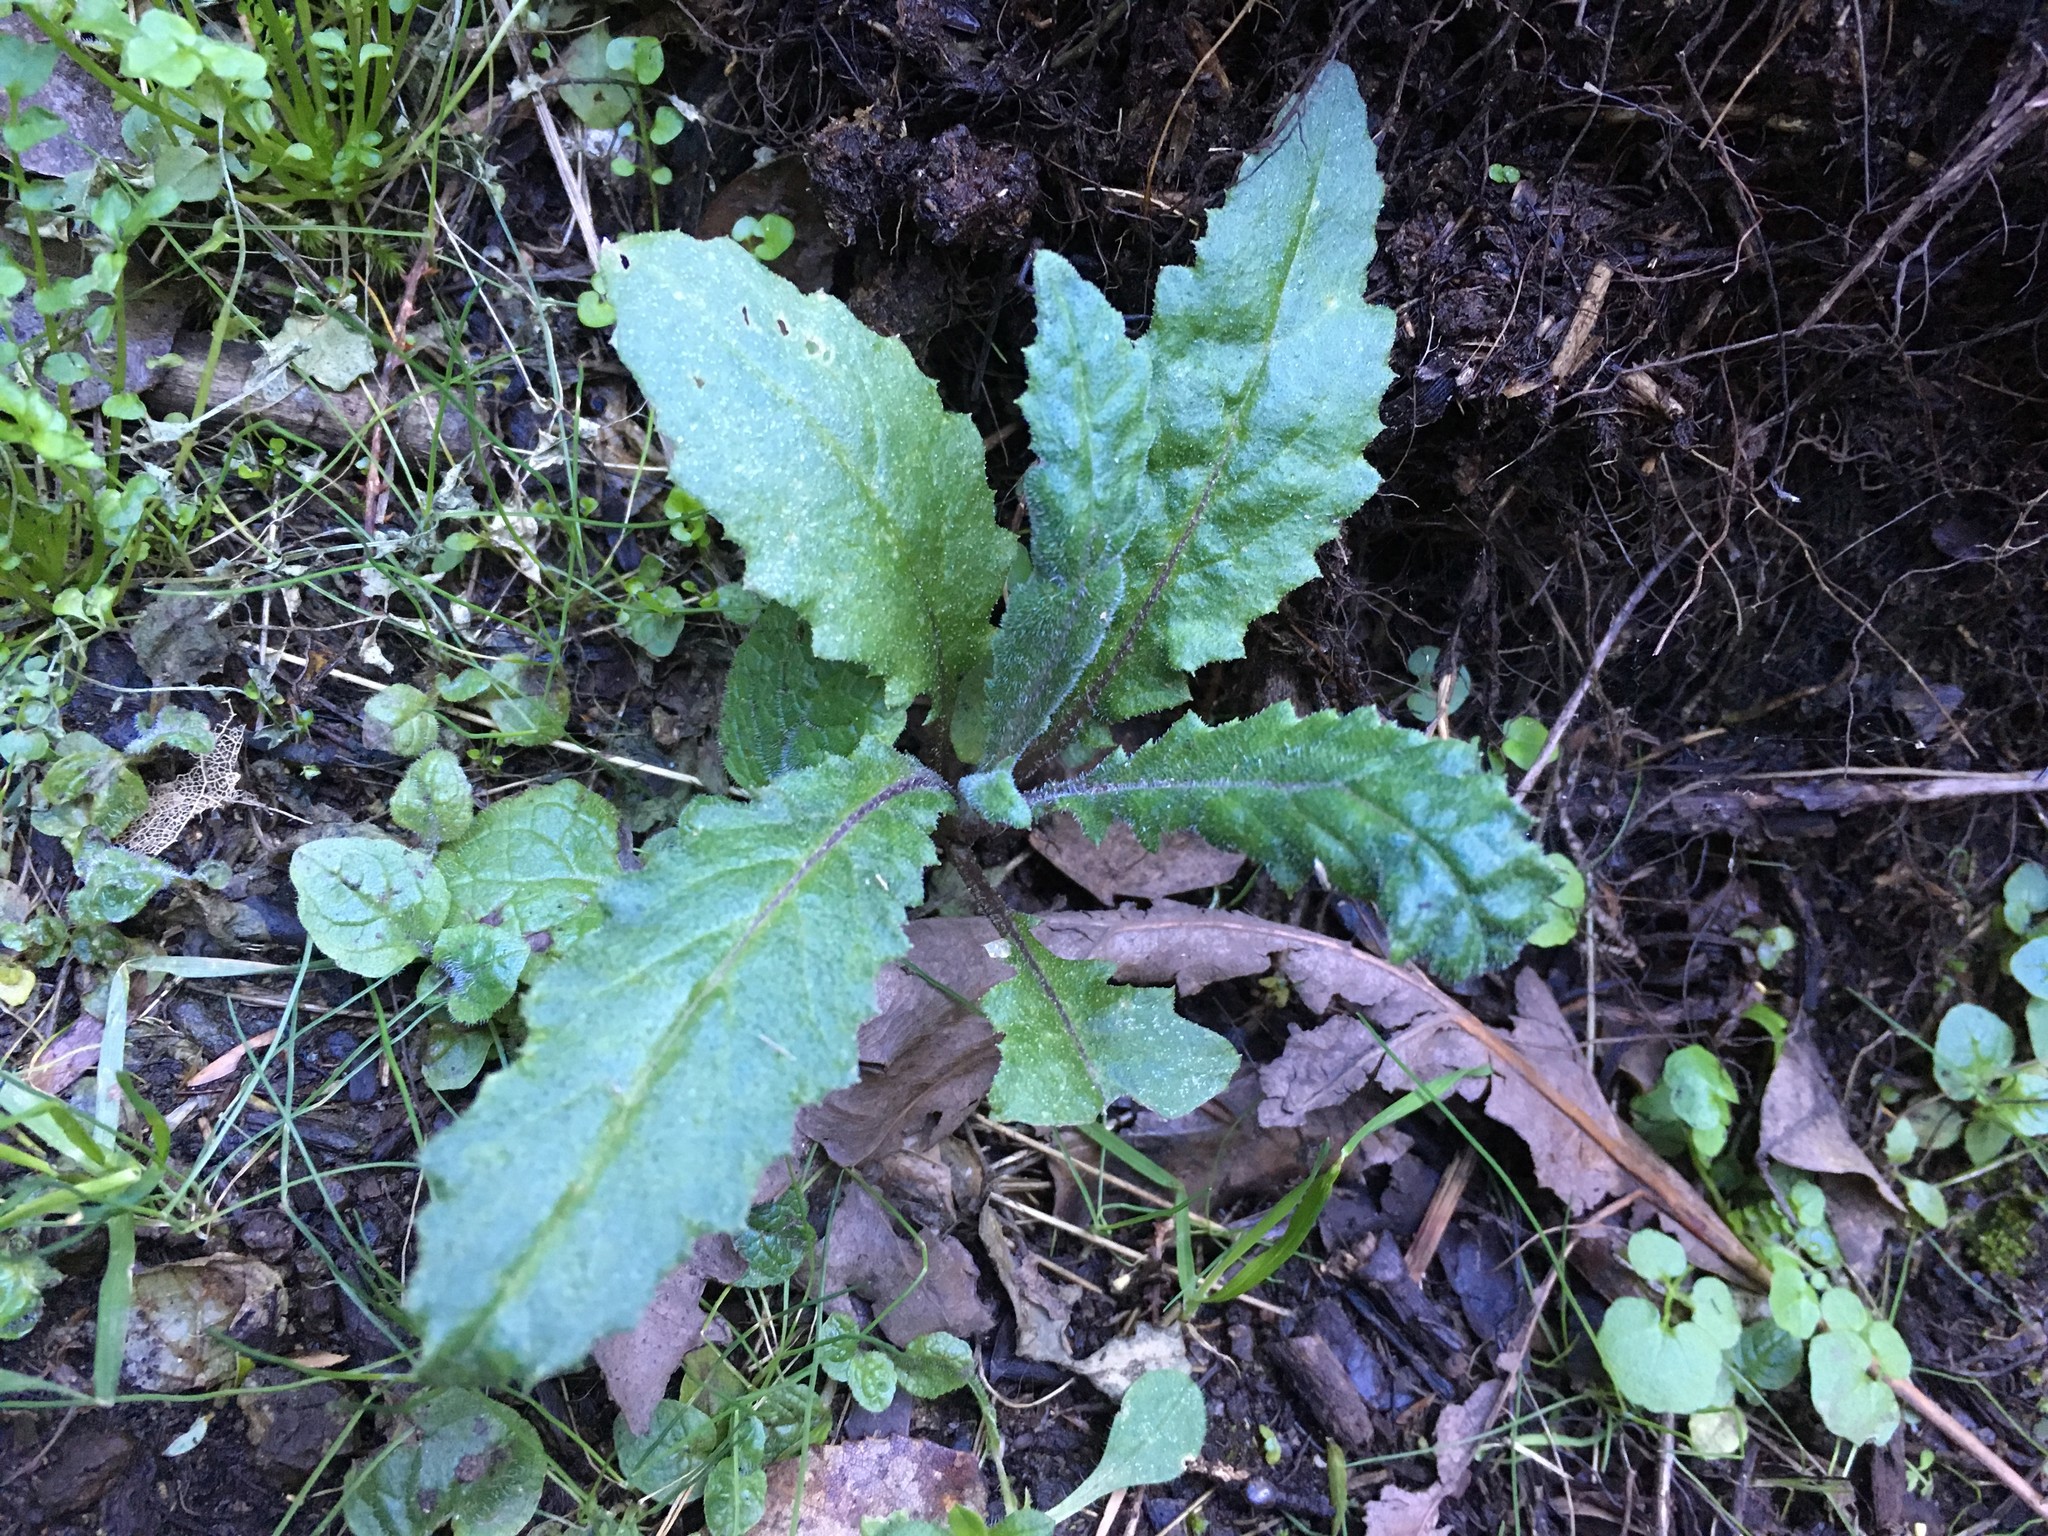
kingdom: Plantae
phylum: Tracheophyta
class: Magnoliopsida
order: Asterales
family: Asteraceae
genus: Senecio
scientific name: Senecio minimus
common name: Toothed fireweed
